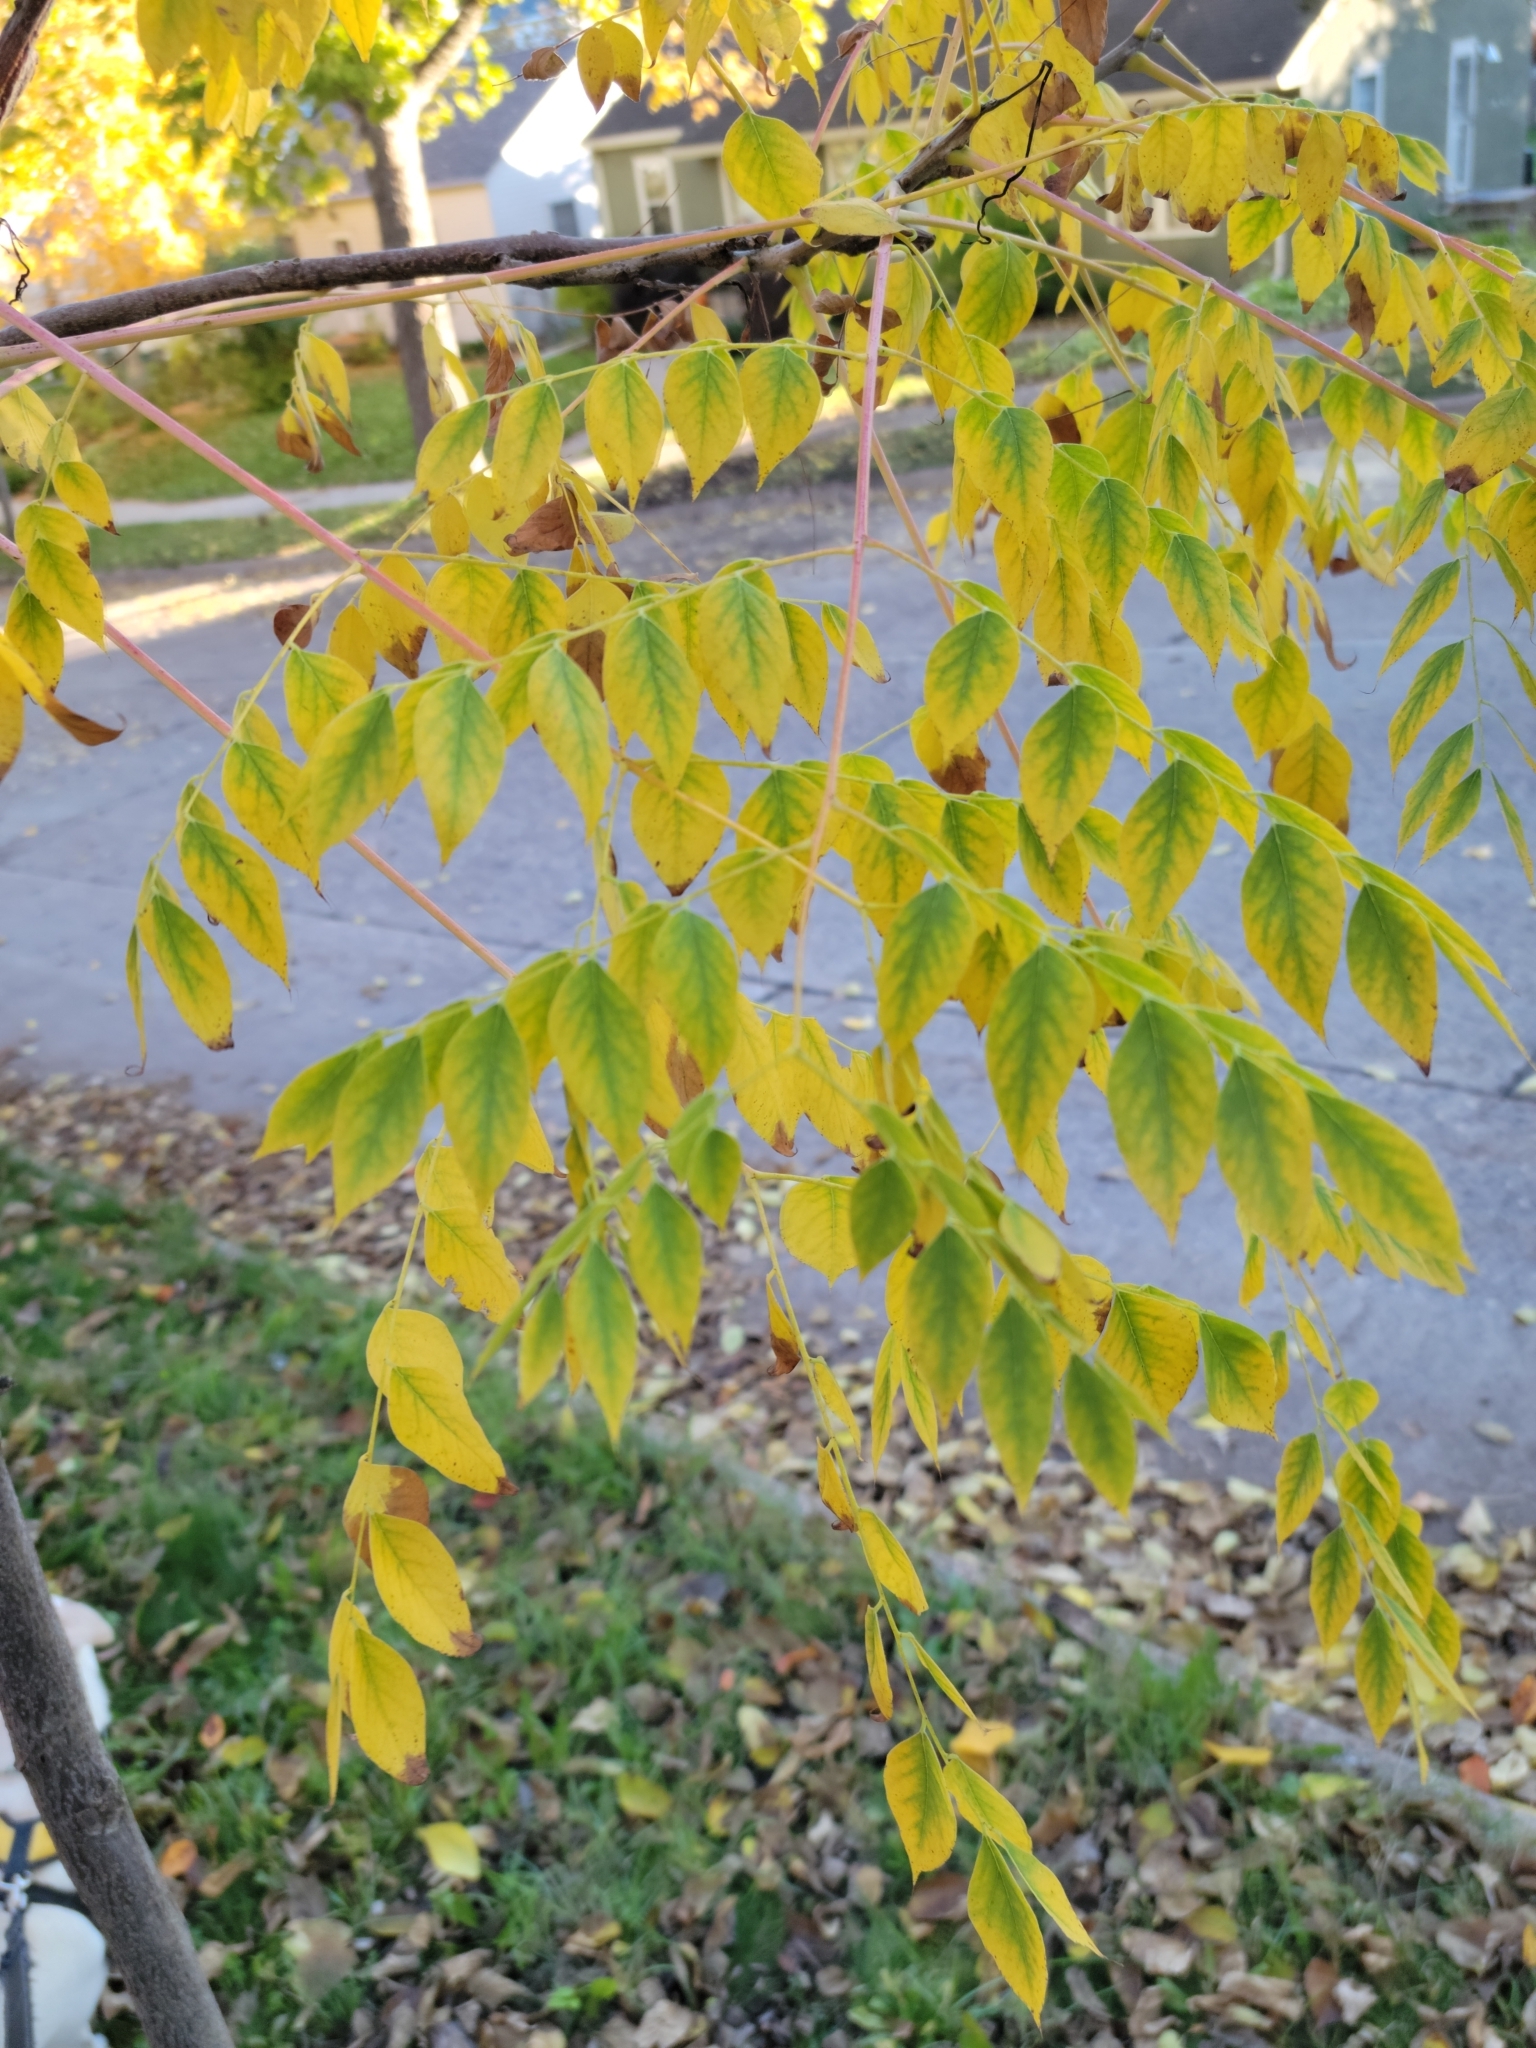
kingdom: Plantae
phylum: Tracheophyta
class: Magnoliopsida
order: Fabales
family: Fabaceae
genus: Gymnocladus
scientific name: Gymnocladus dioicus
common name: Kentucky coffee-tree
